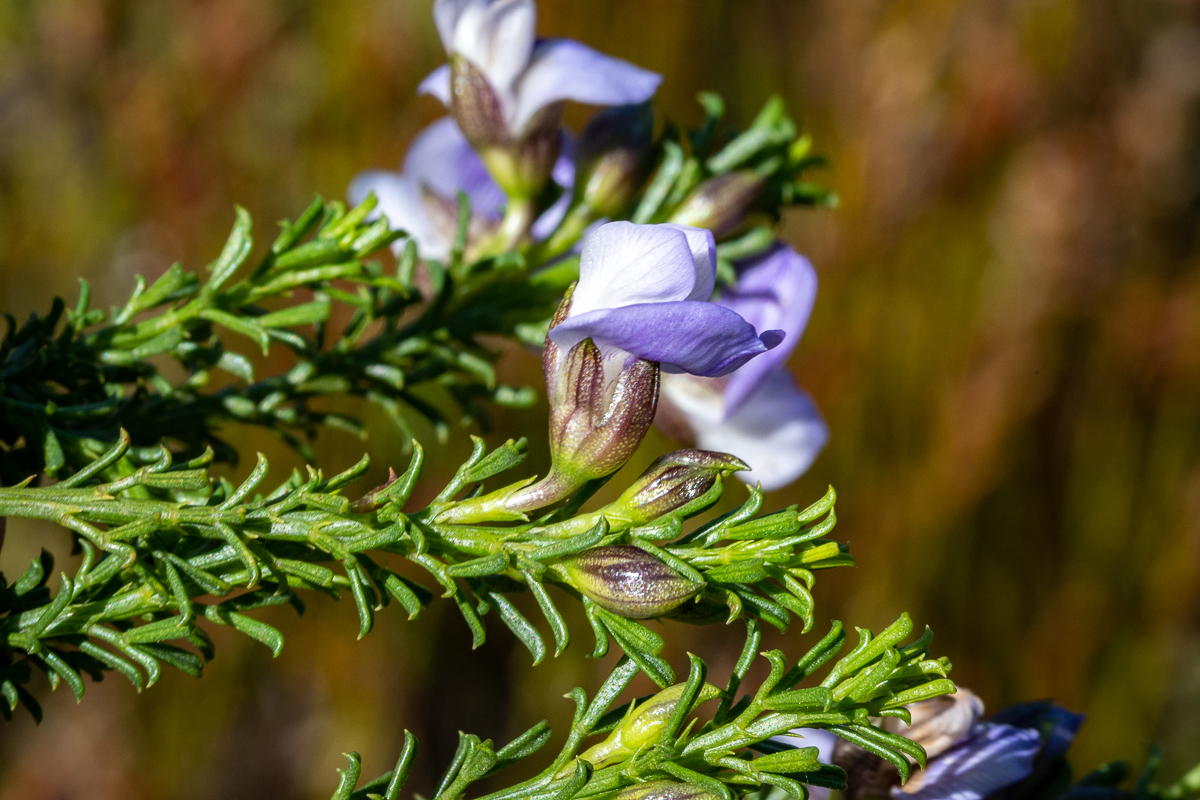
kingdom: Plantae
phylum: Tracheophyta
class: Magnoliopsida
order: Fabales
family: Fabaceae
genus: Psoralea
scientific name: Psoralea aculeata
